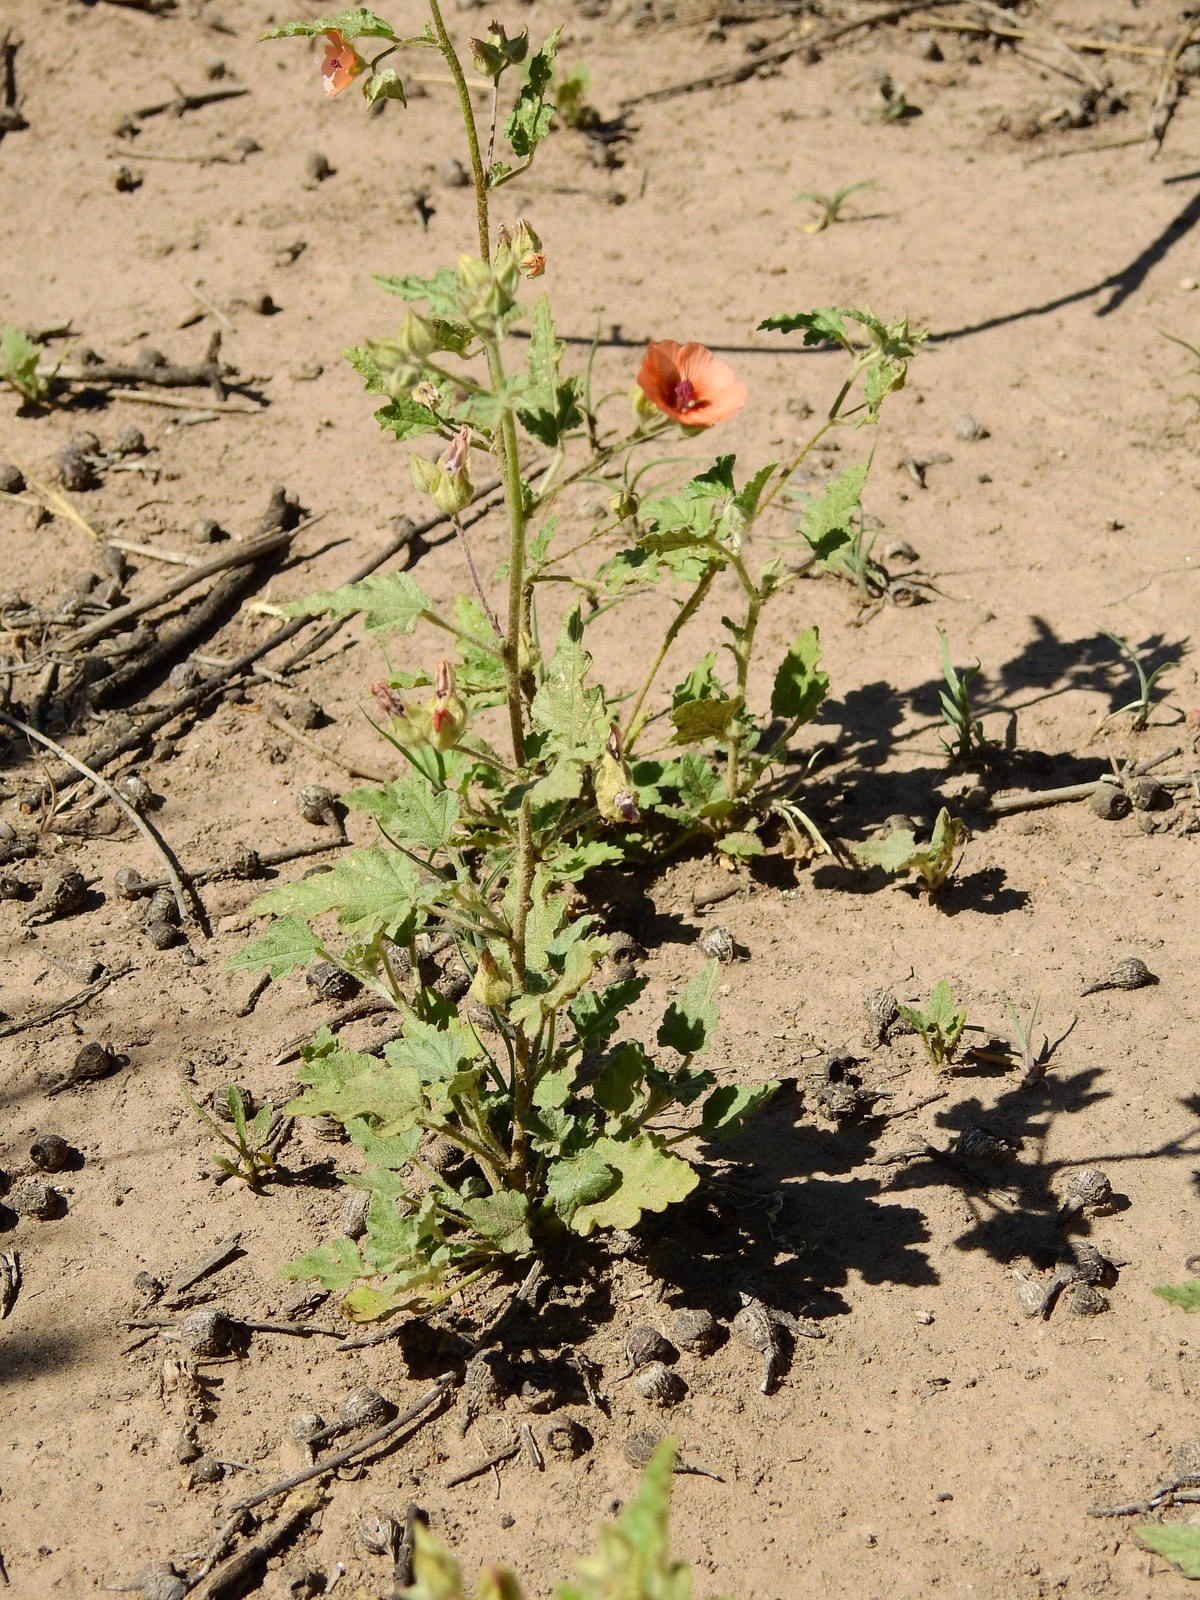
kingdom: Plantae
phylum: Tracheophyta
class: Magnoliopsida
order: Malvales
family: Malvaceae
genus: Sphaeralcea
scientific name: Sphaeralcea miniata
